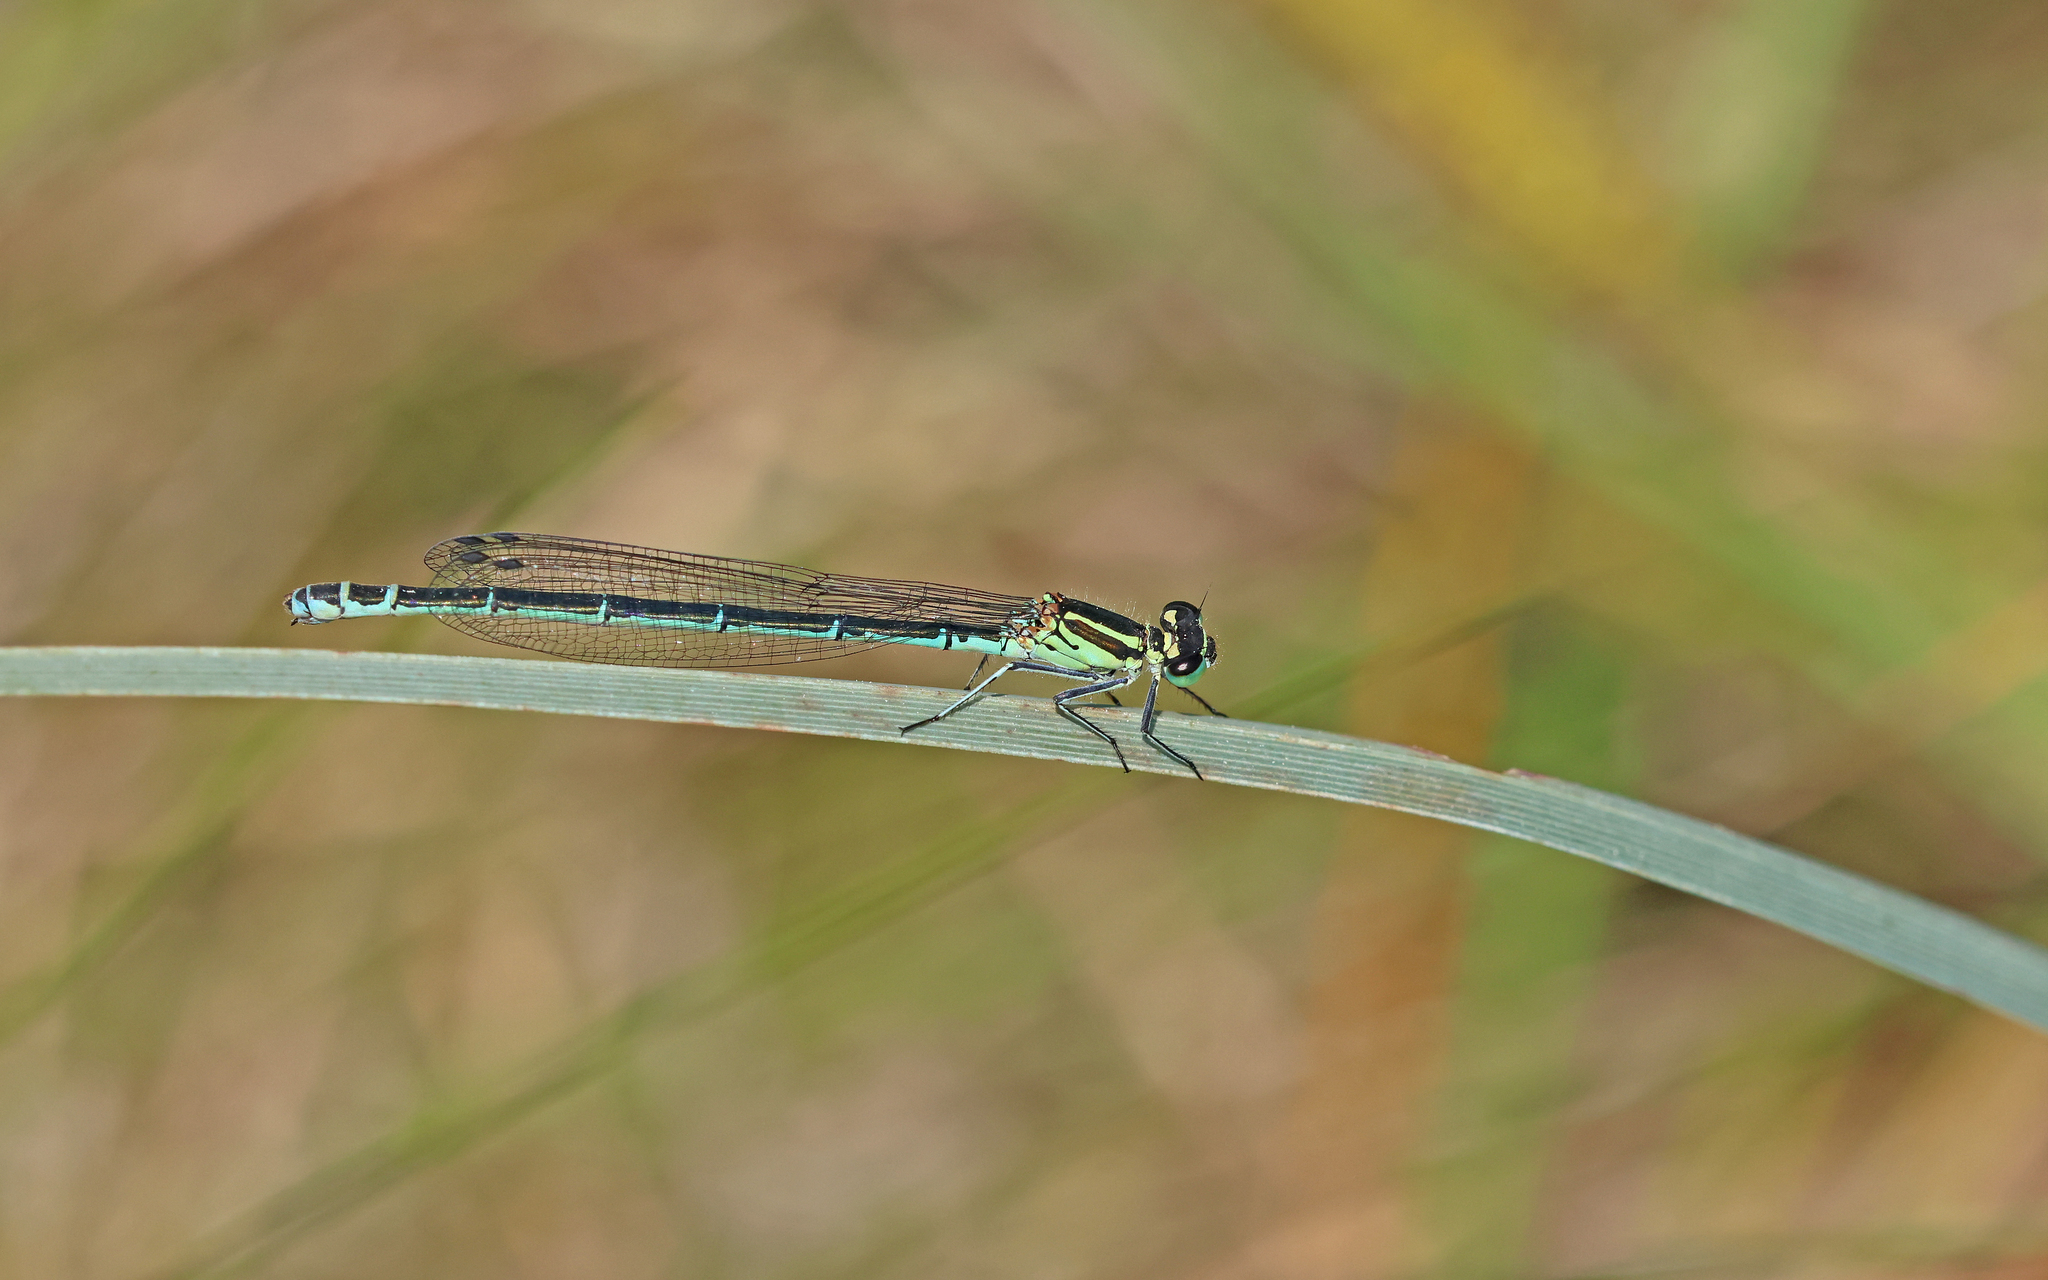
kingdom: Animalia
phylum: Arthropoda
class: Insecta
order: Odonata
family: Coenagrionidae
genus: Coenagrion
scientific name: Coenagrion puella
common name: Azure damselfly
